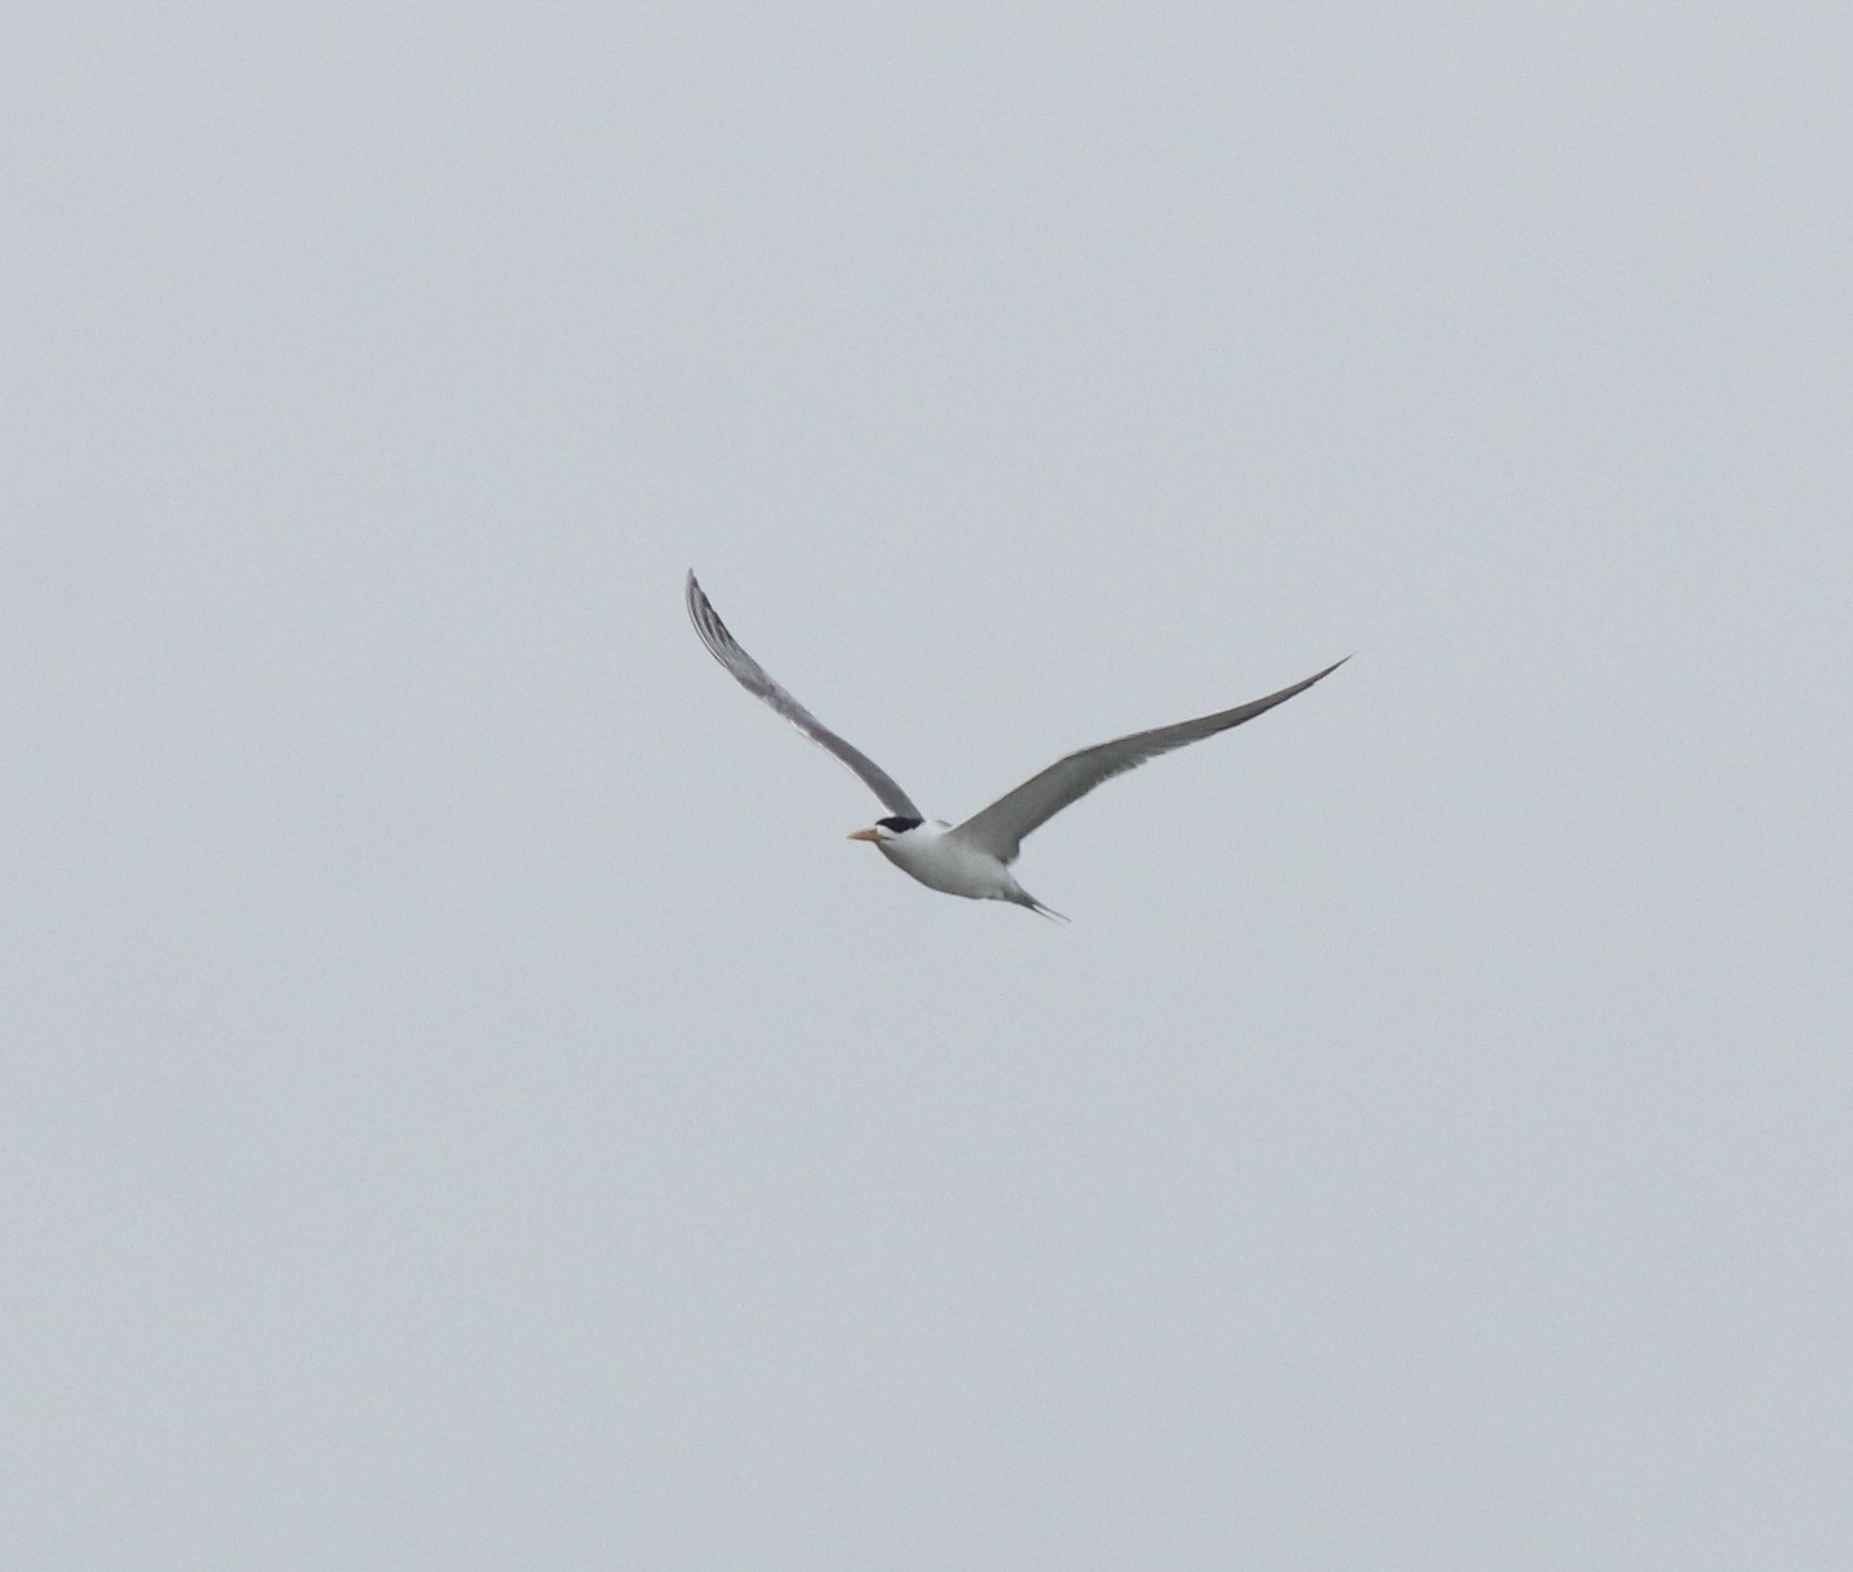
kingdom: Animalia
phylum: Chordata
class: Aves
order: Charadriiformes
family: Laridae
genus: Thalasseus
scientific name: Thalasseus bergii
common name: Greater crested tern
